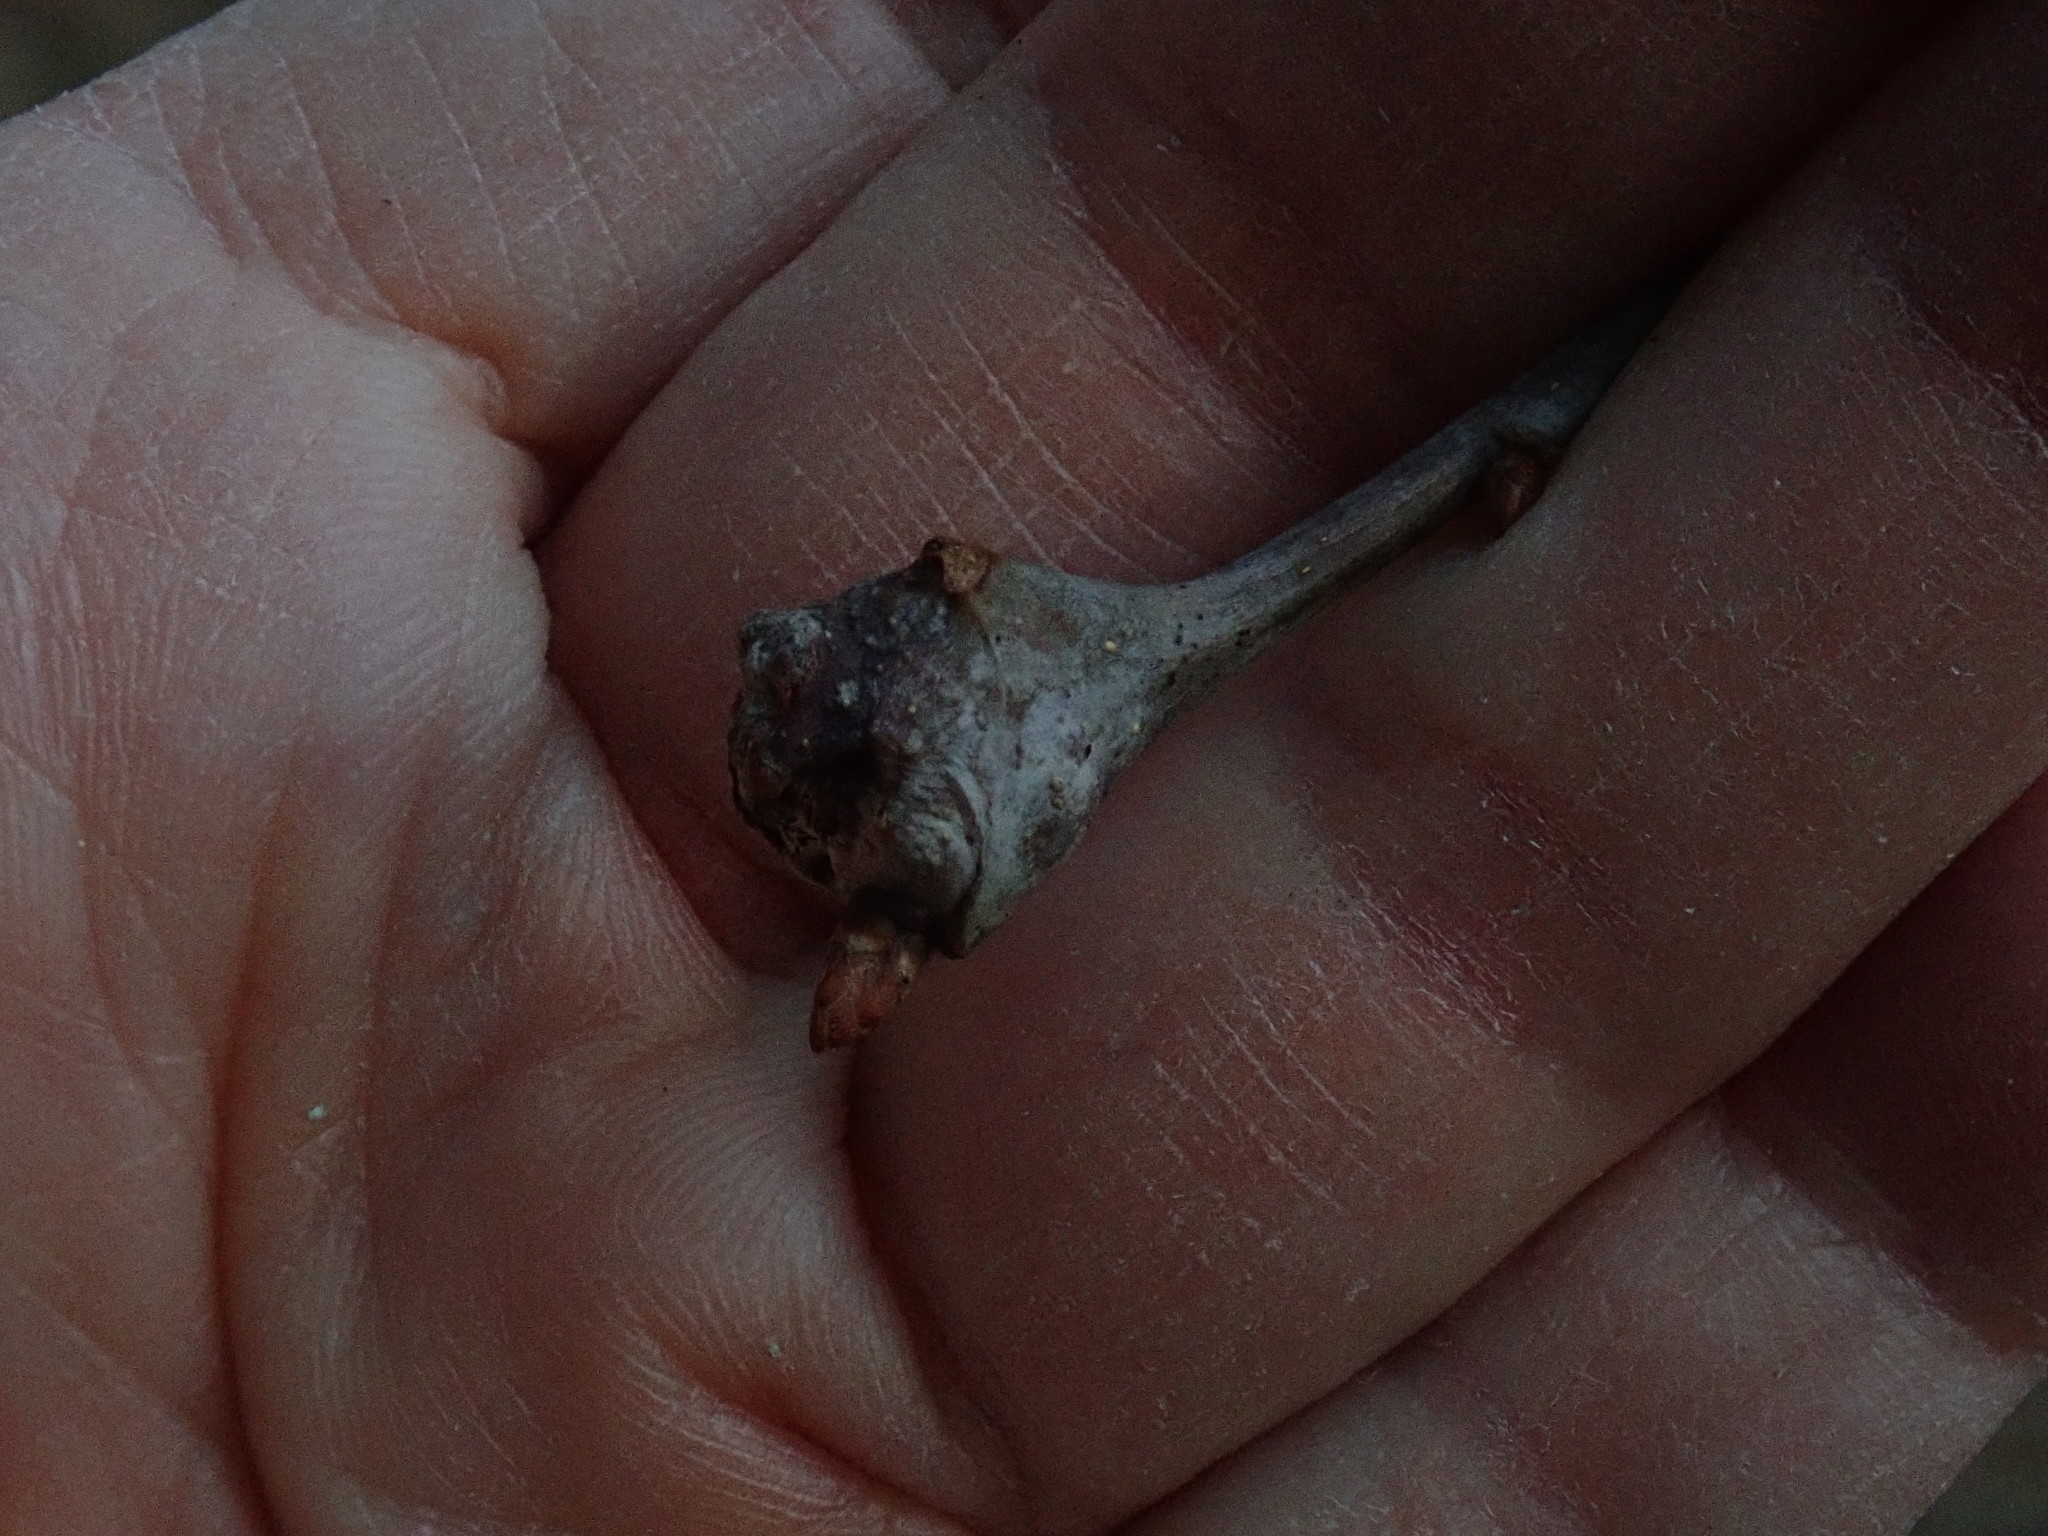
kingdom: Animalia
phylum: Arthropoda
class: Insecta
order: Hymenoptera
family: Cynipidae
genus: Callirhytis
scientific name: Callirhytis clavula
